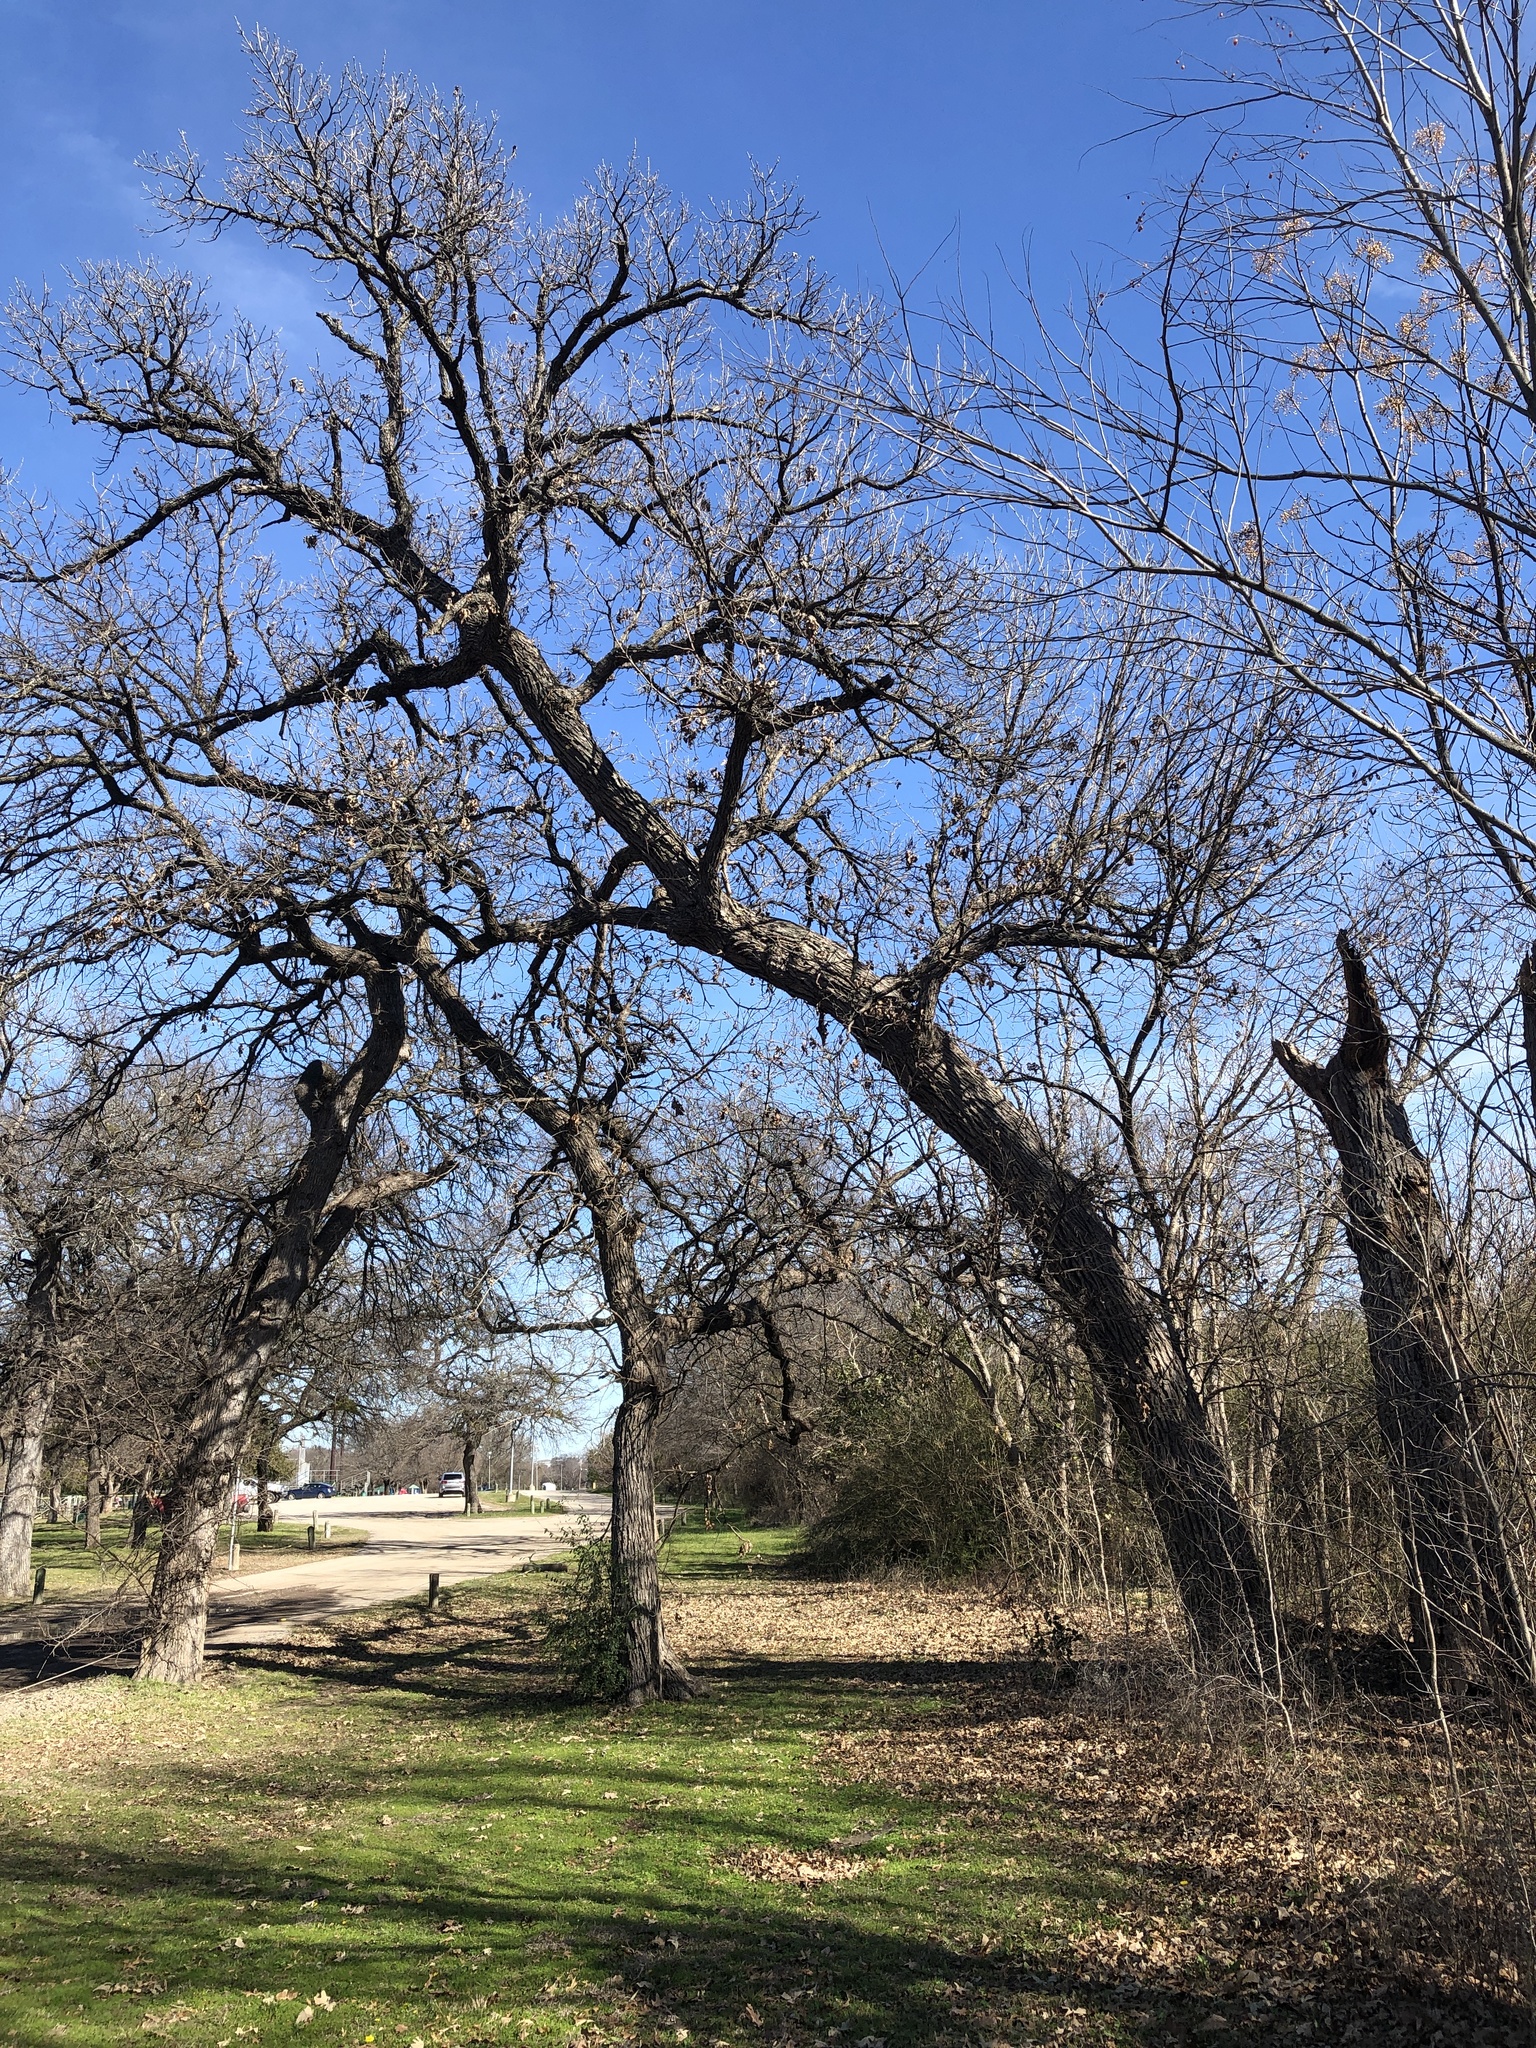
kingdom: Plantae
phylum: Tracheophyta
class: Magnoliopsida
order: Fagales
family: Fagaceae
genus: Quercus
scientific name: Quercus macrocarpa
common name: Bur oak
